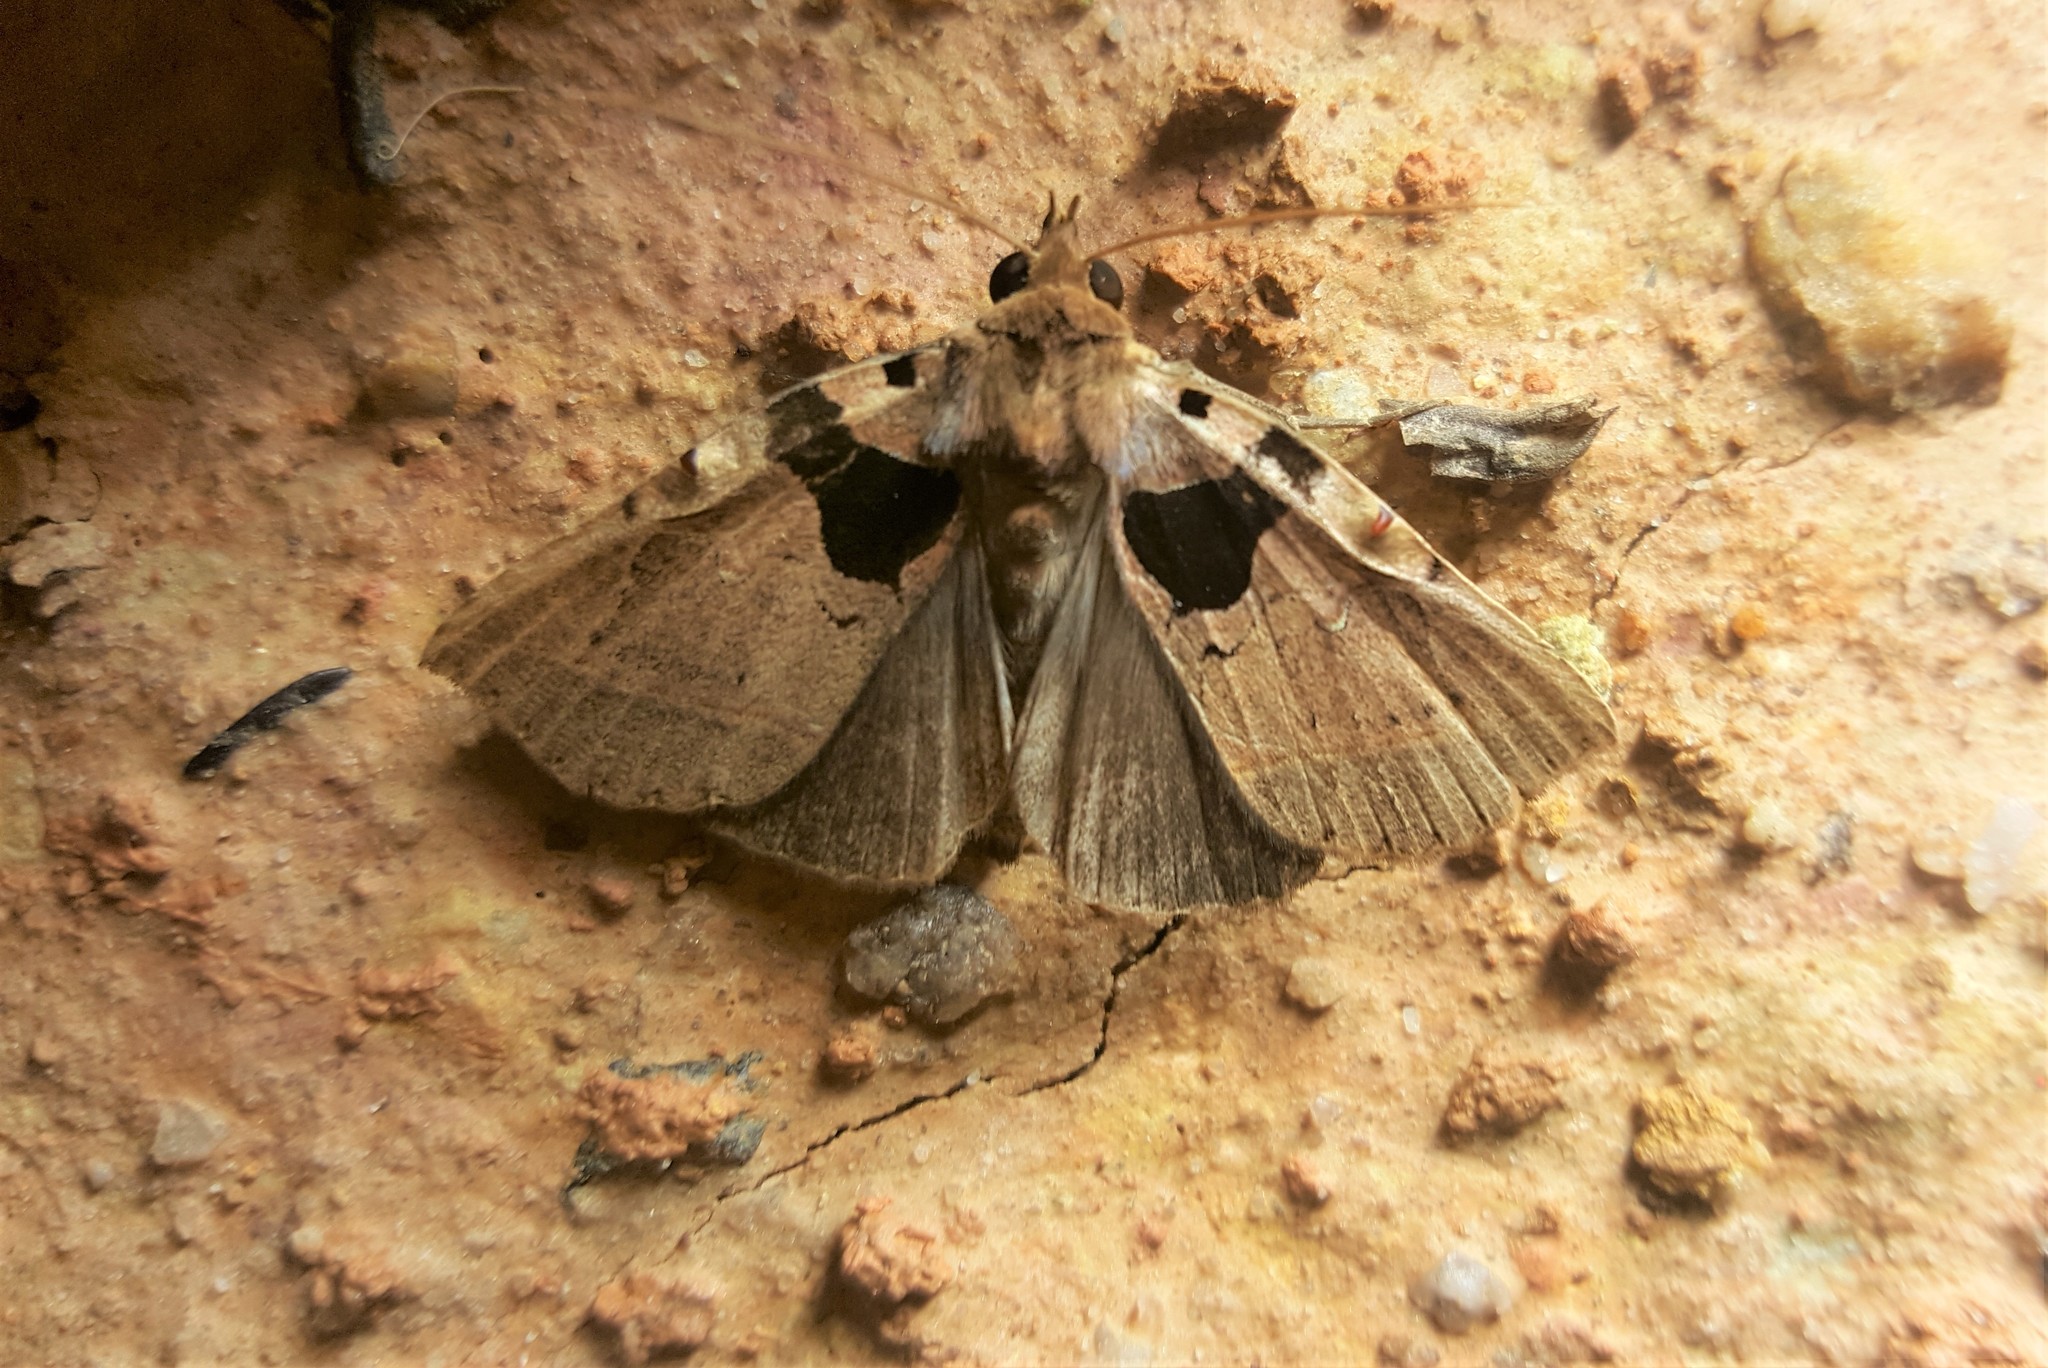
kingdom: Animalia
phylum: Arthropoda
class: Insecta
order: Lepidoptera
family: Erebidae
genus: Athyrma
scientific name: Athyrma tuberosa
